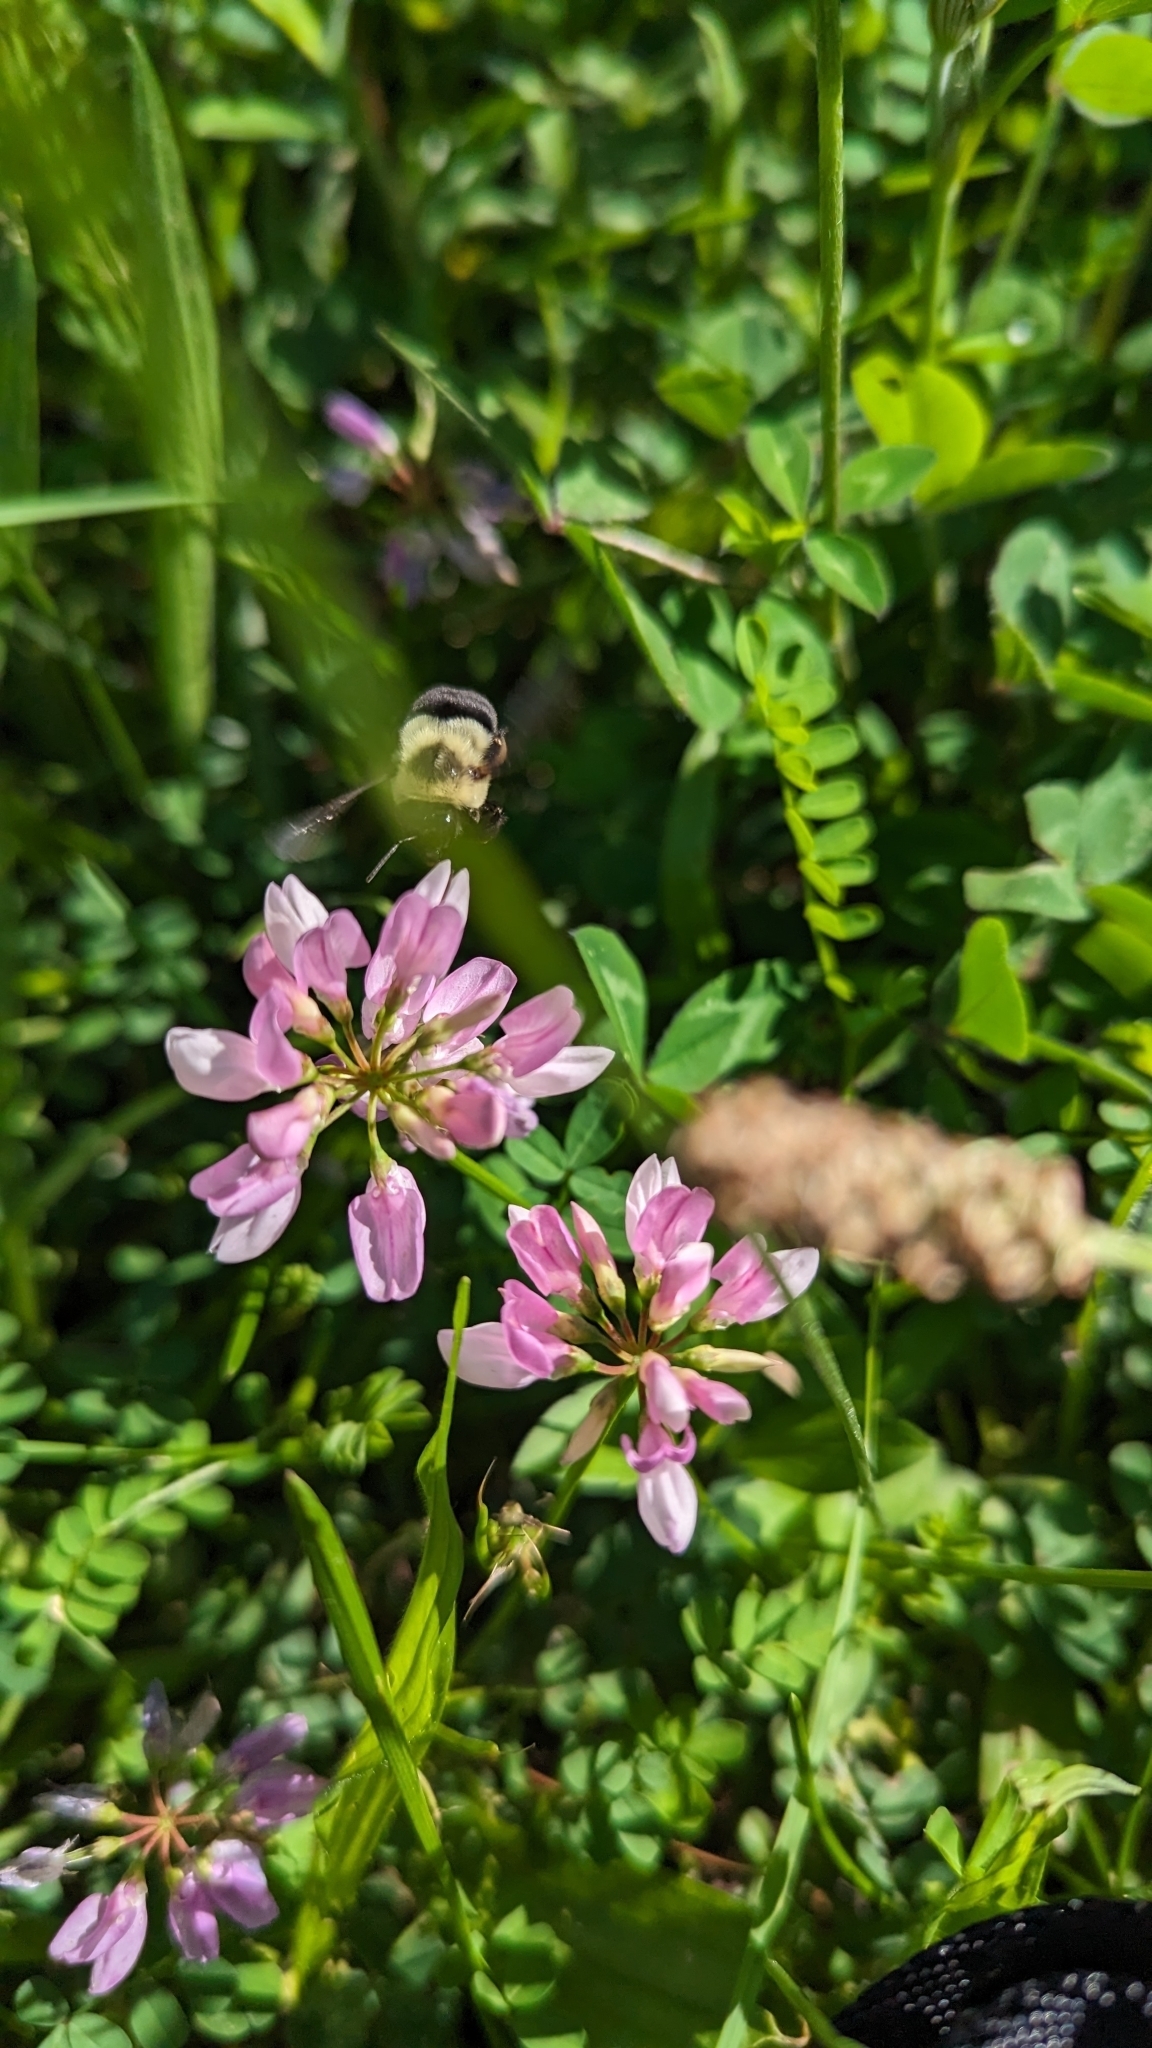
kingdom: Animalia
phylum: Arthropoda
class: Insecta
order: Hymenoptera
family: Apidae
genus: Bombus
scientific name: Bombus impatiens
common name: Common eastern bumble bee
